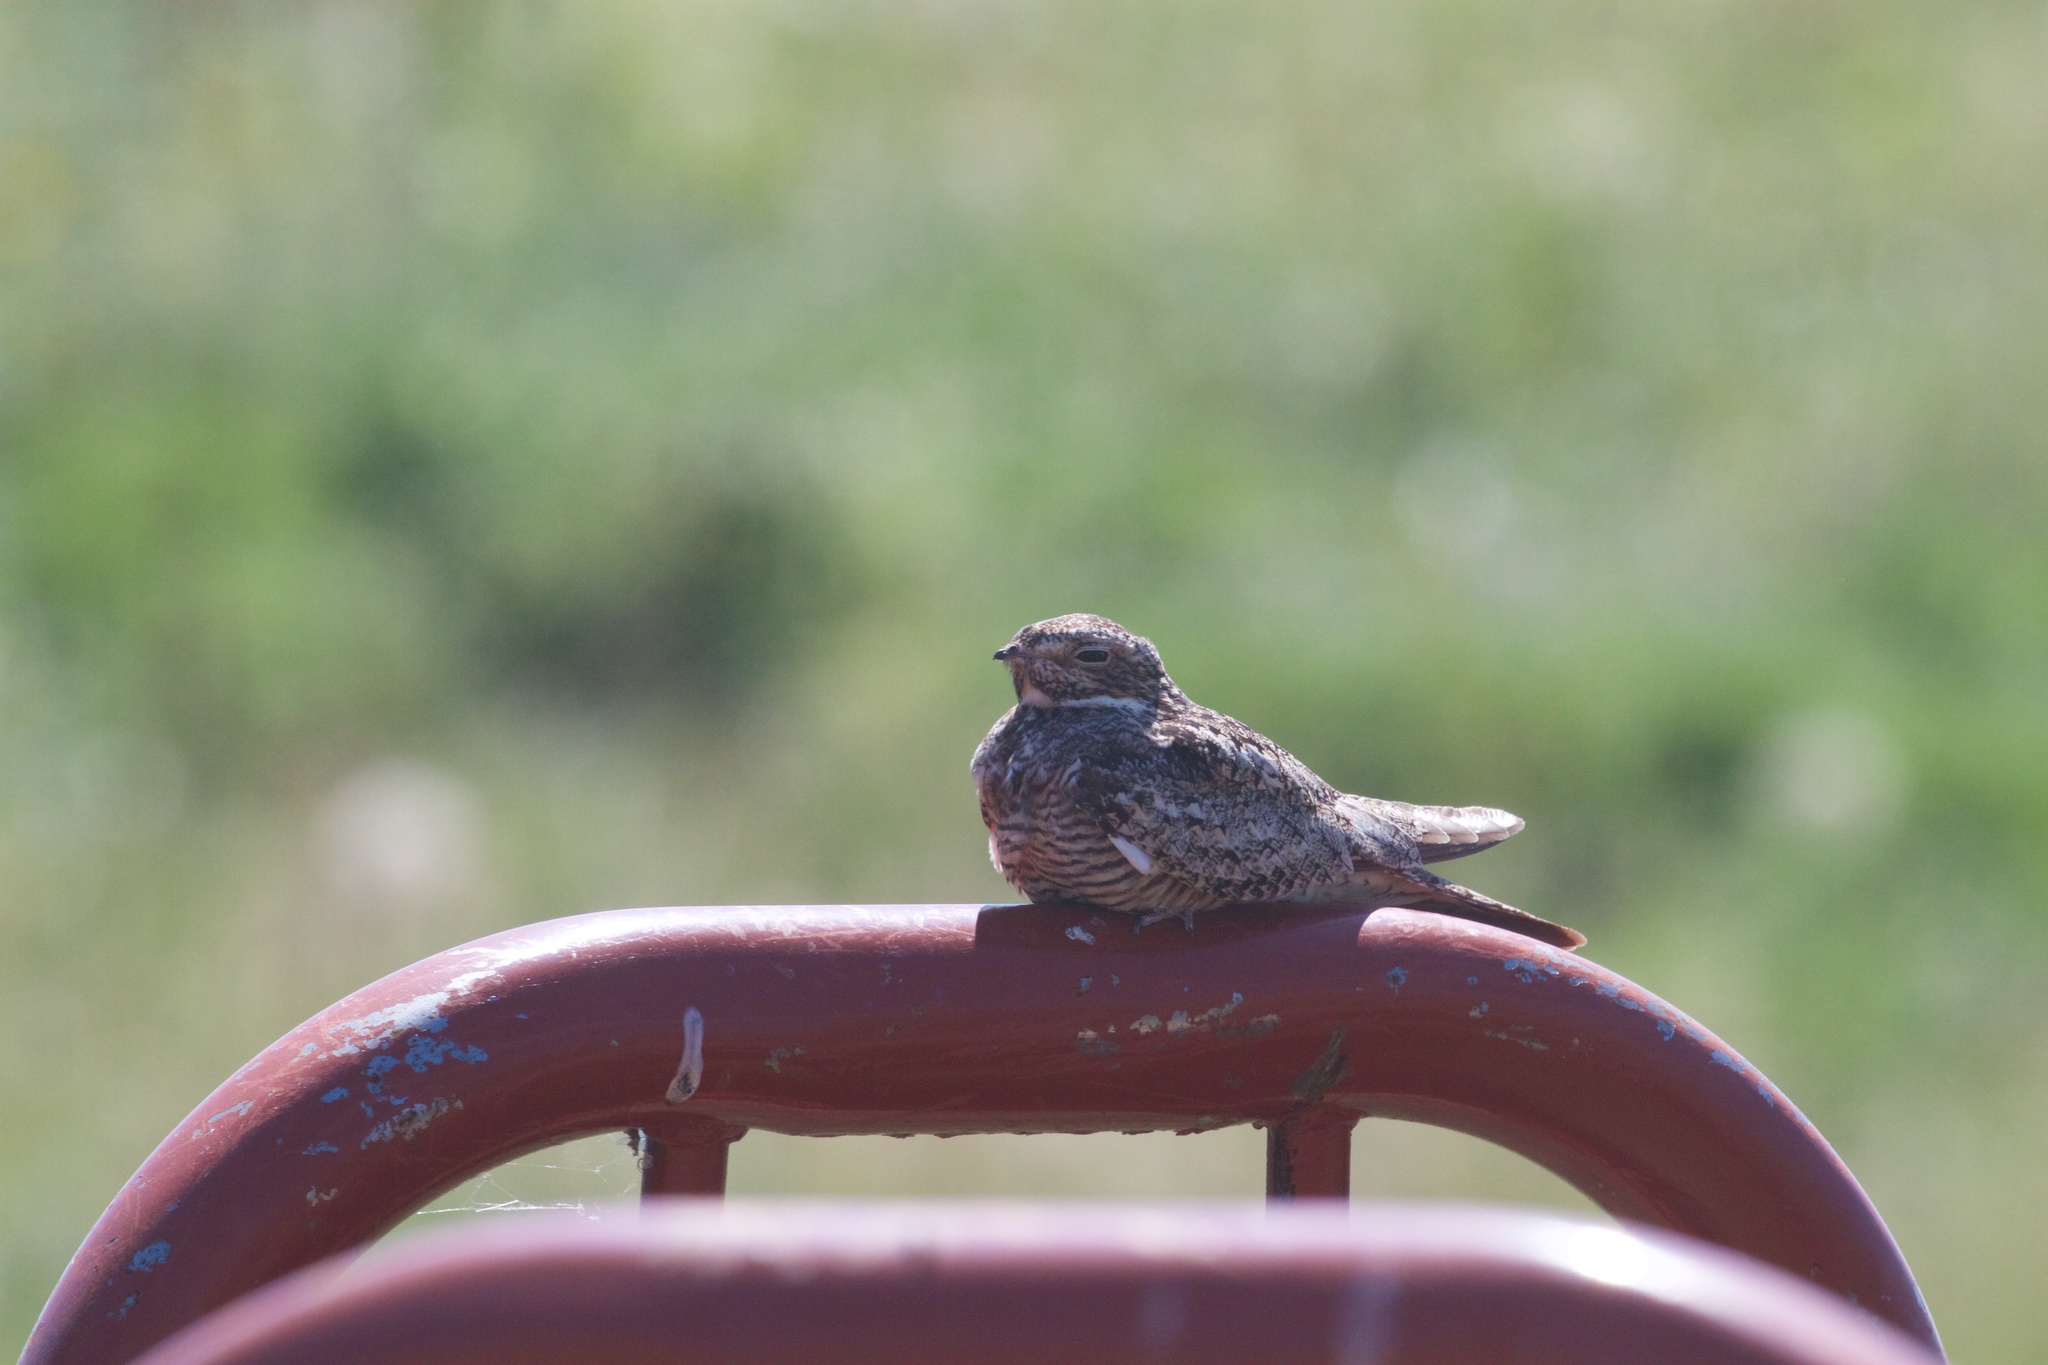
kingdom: Animalia
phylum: Chordata
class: Aves
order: Caprimulgiformes
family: Caprimulgidae
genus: Chordeiles
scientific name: Chordeiles minor
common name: Common nighthawk
